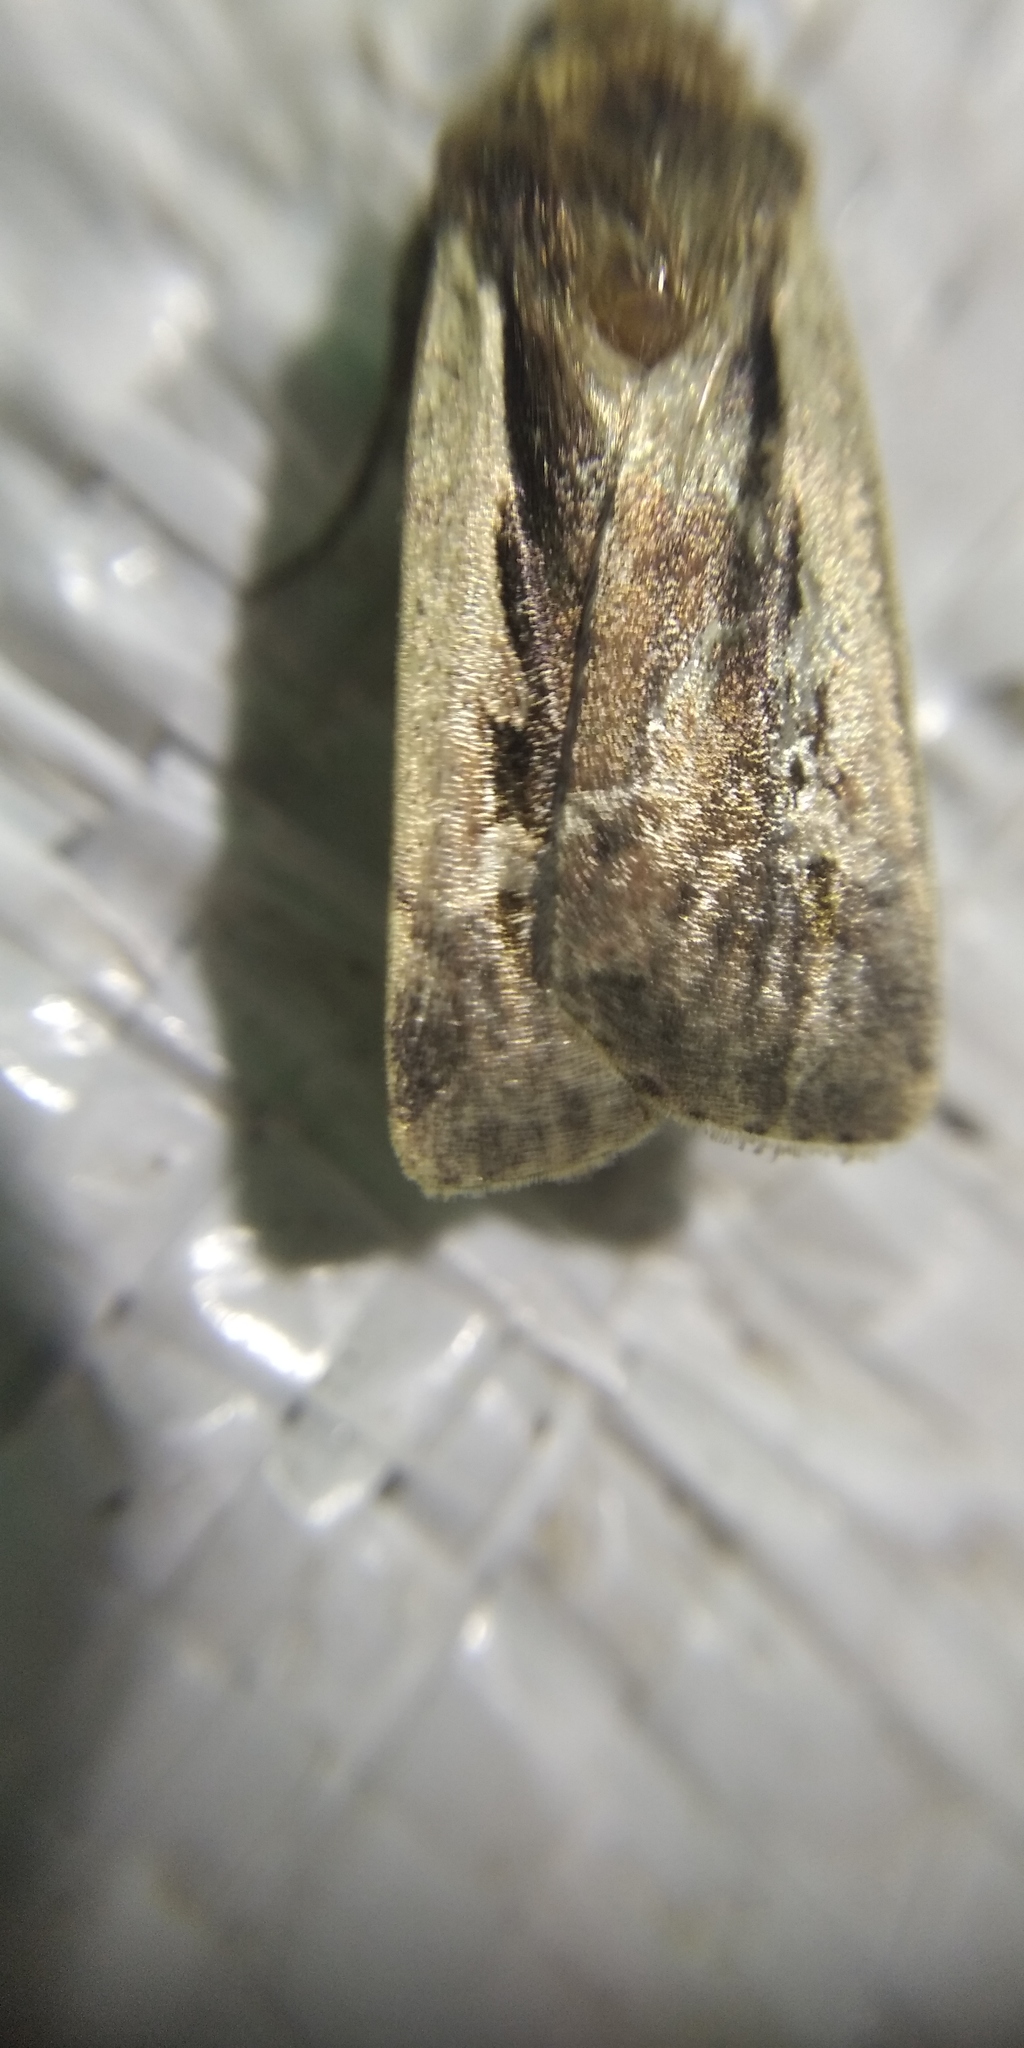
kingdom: Animalia
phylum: Arthropoda
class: Insecta
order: Lepidoptera
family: Noctuidae
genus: Ochropleura
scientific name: Ochropleura plecta
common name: Flame shoulder
